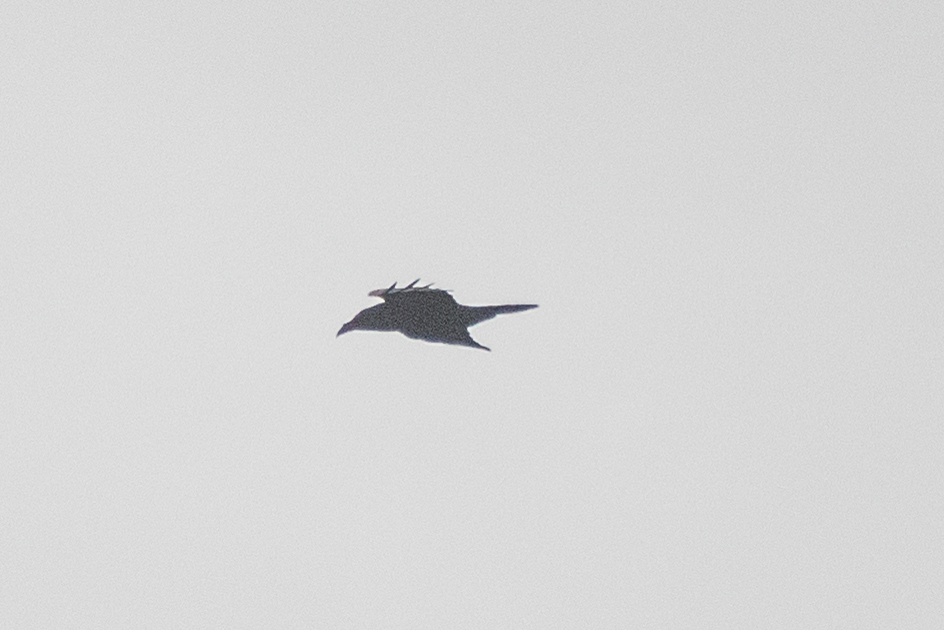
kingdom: Animalia
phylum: Chordata
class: Aves
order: Passeriformes
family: Corvidae
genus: Corvus
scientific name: Corvus corax
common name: Common raven
